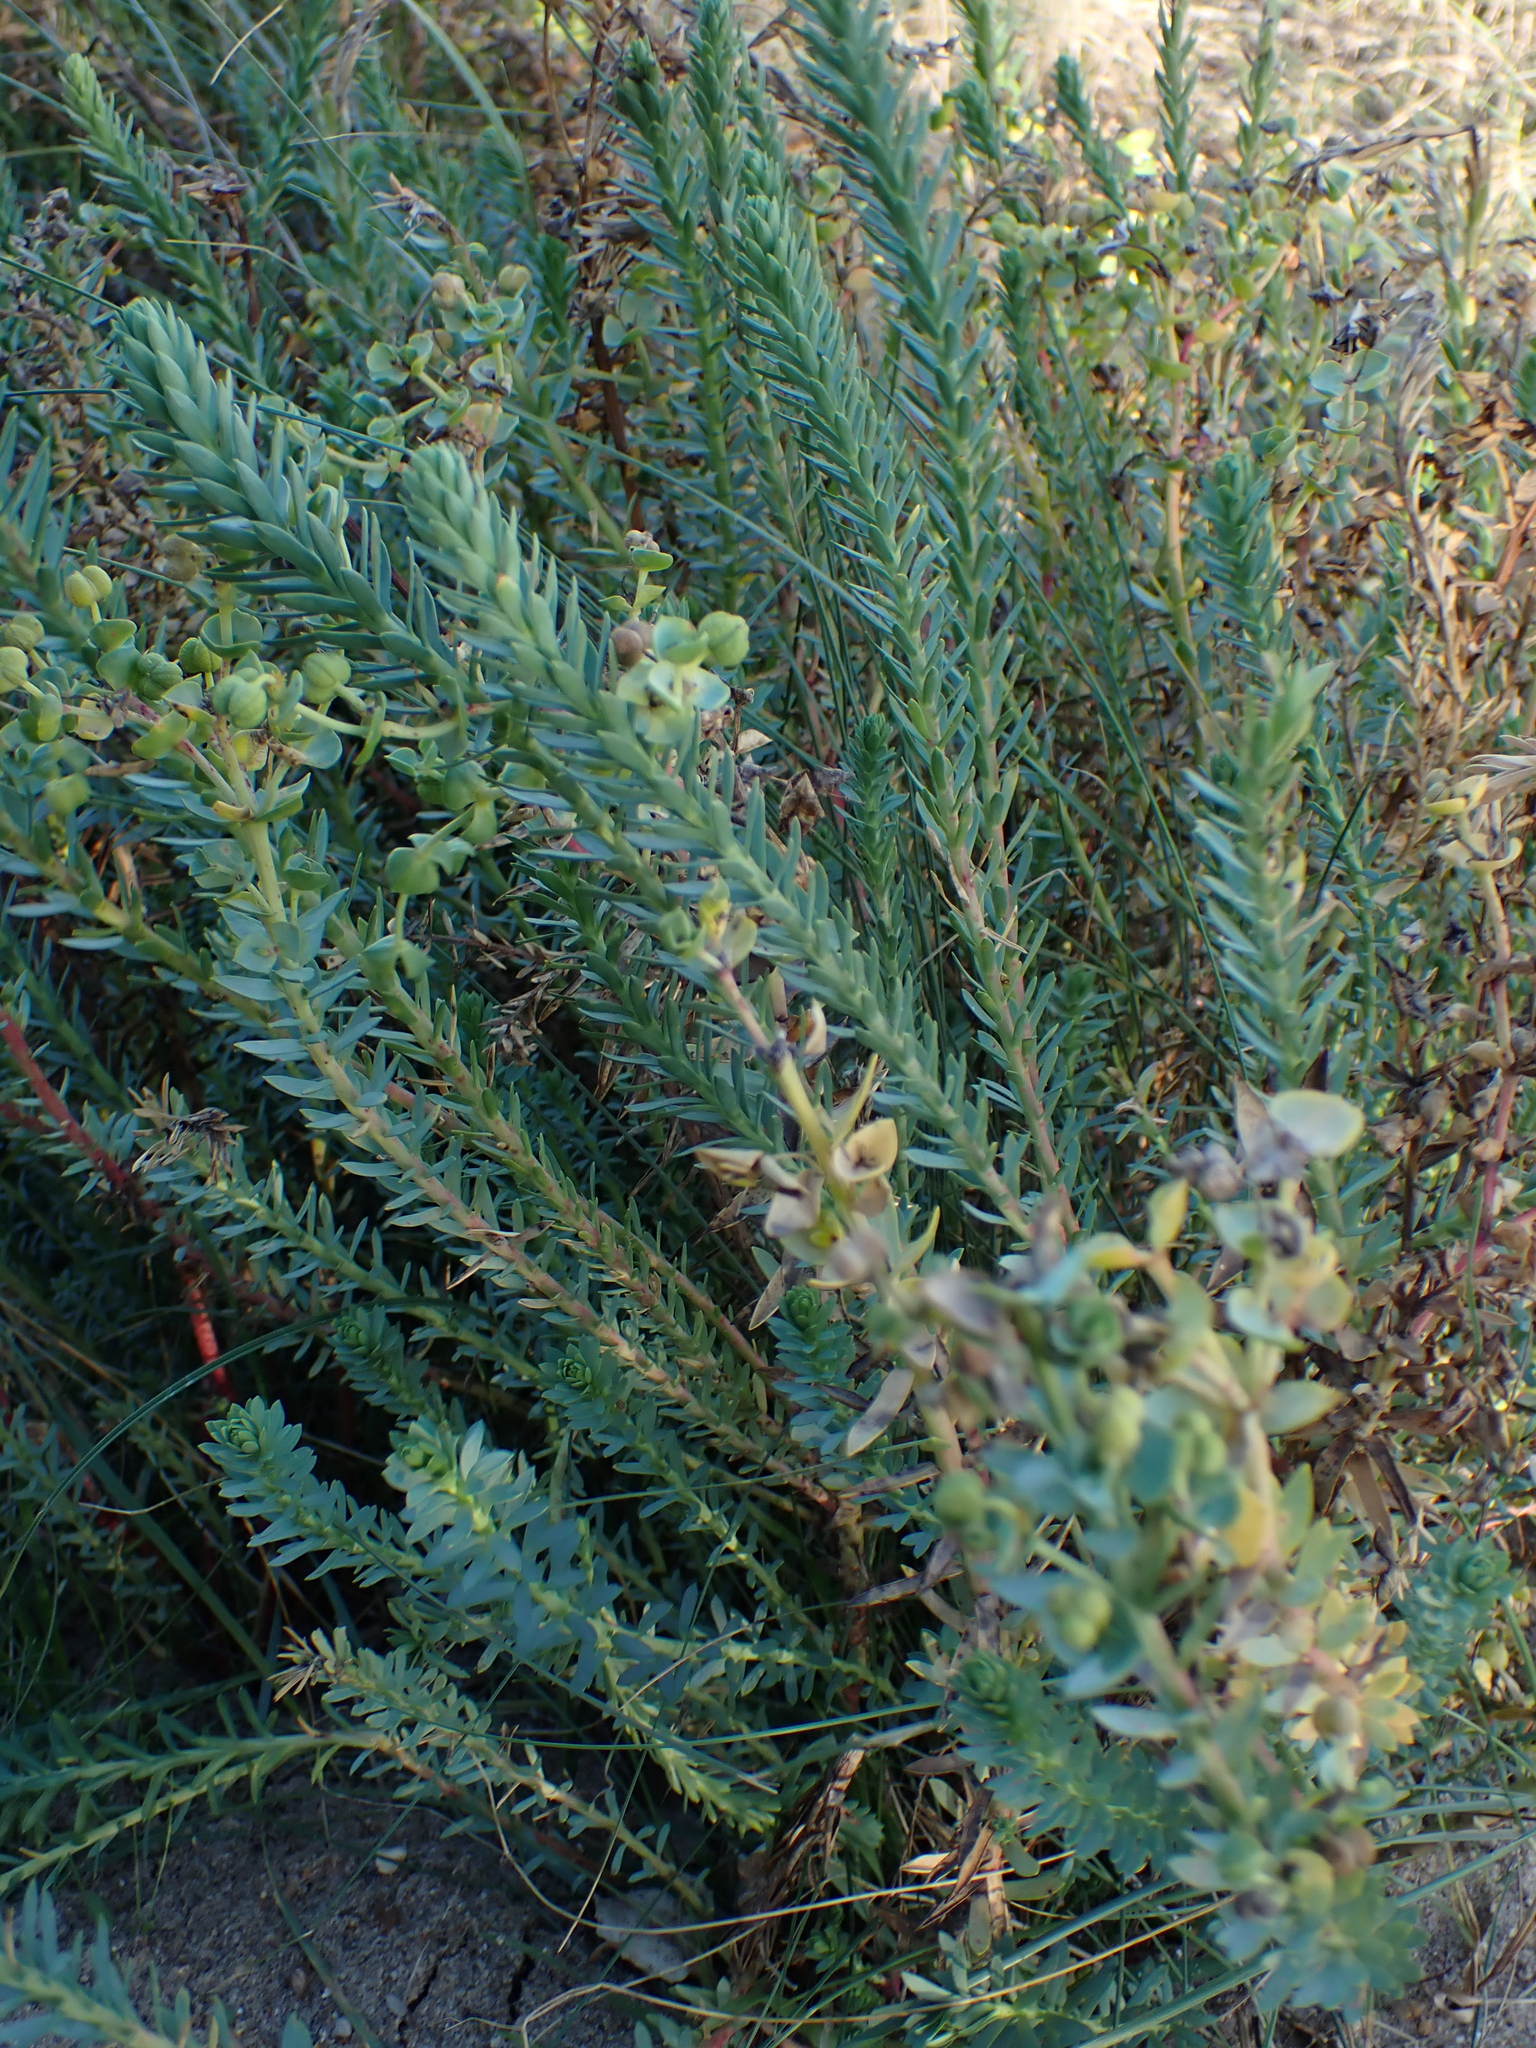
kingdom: Plantae
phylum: Tracheophyta
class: Magnoliopsida
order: Malpighiales
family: Euphorbiaceae
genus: Euphorbia
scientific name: Euphorbia paralias
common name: Sea spurge
